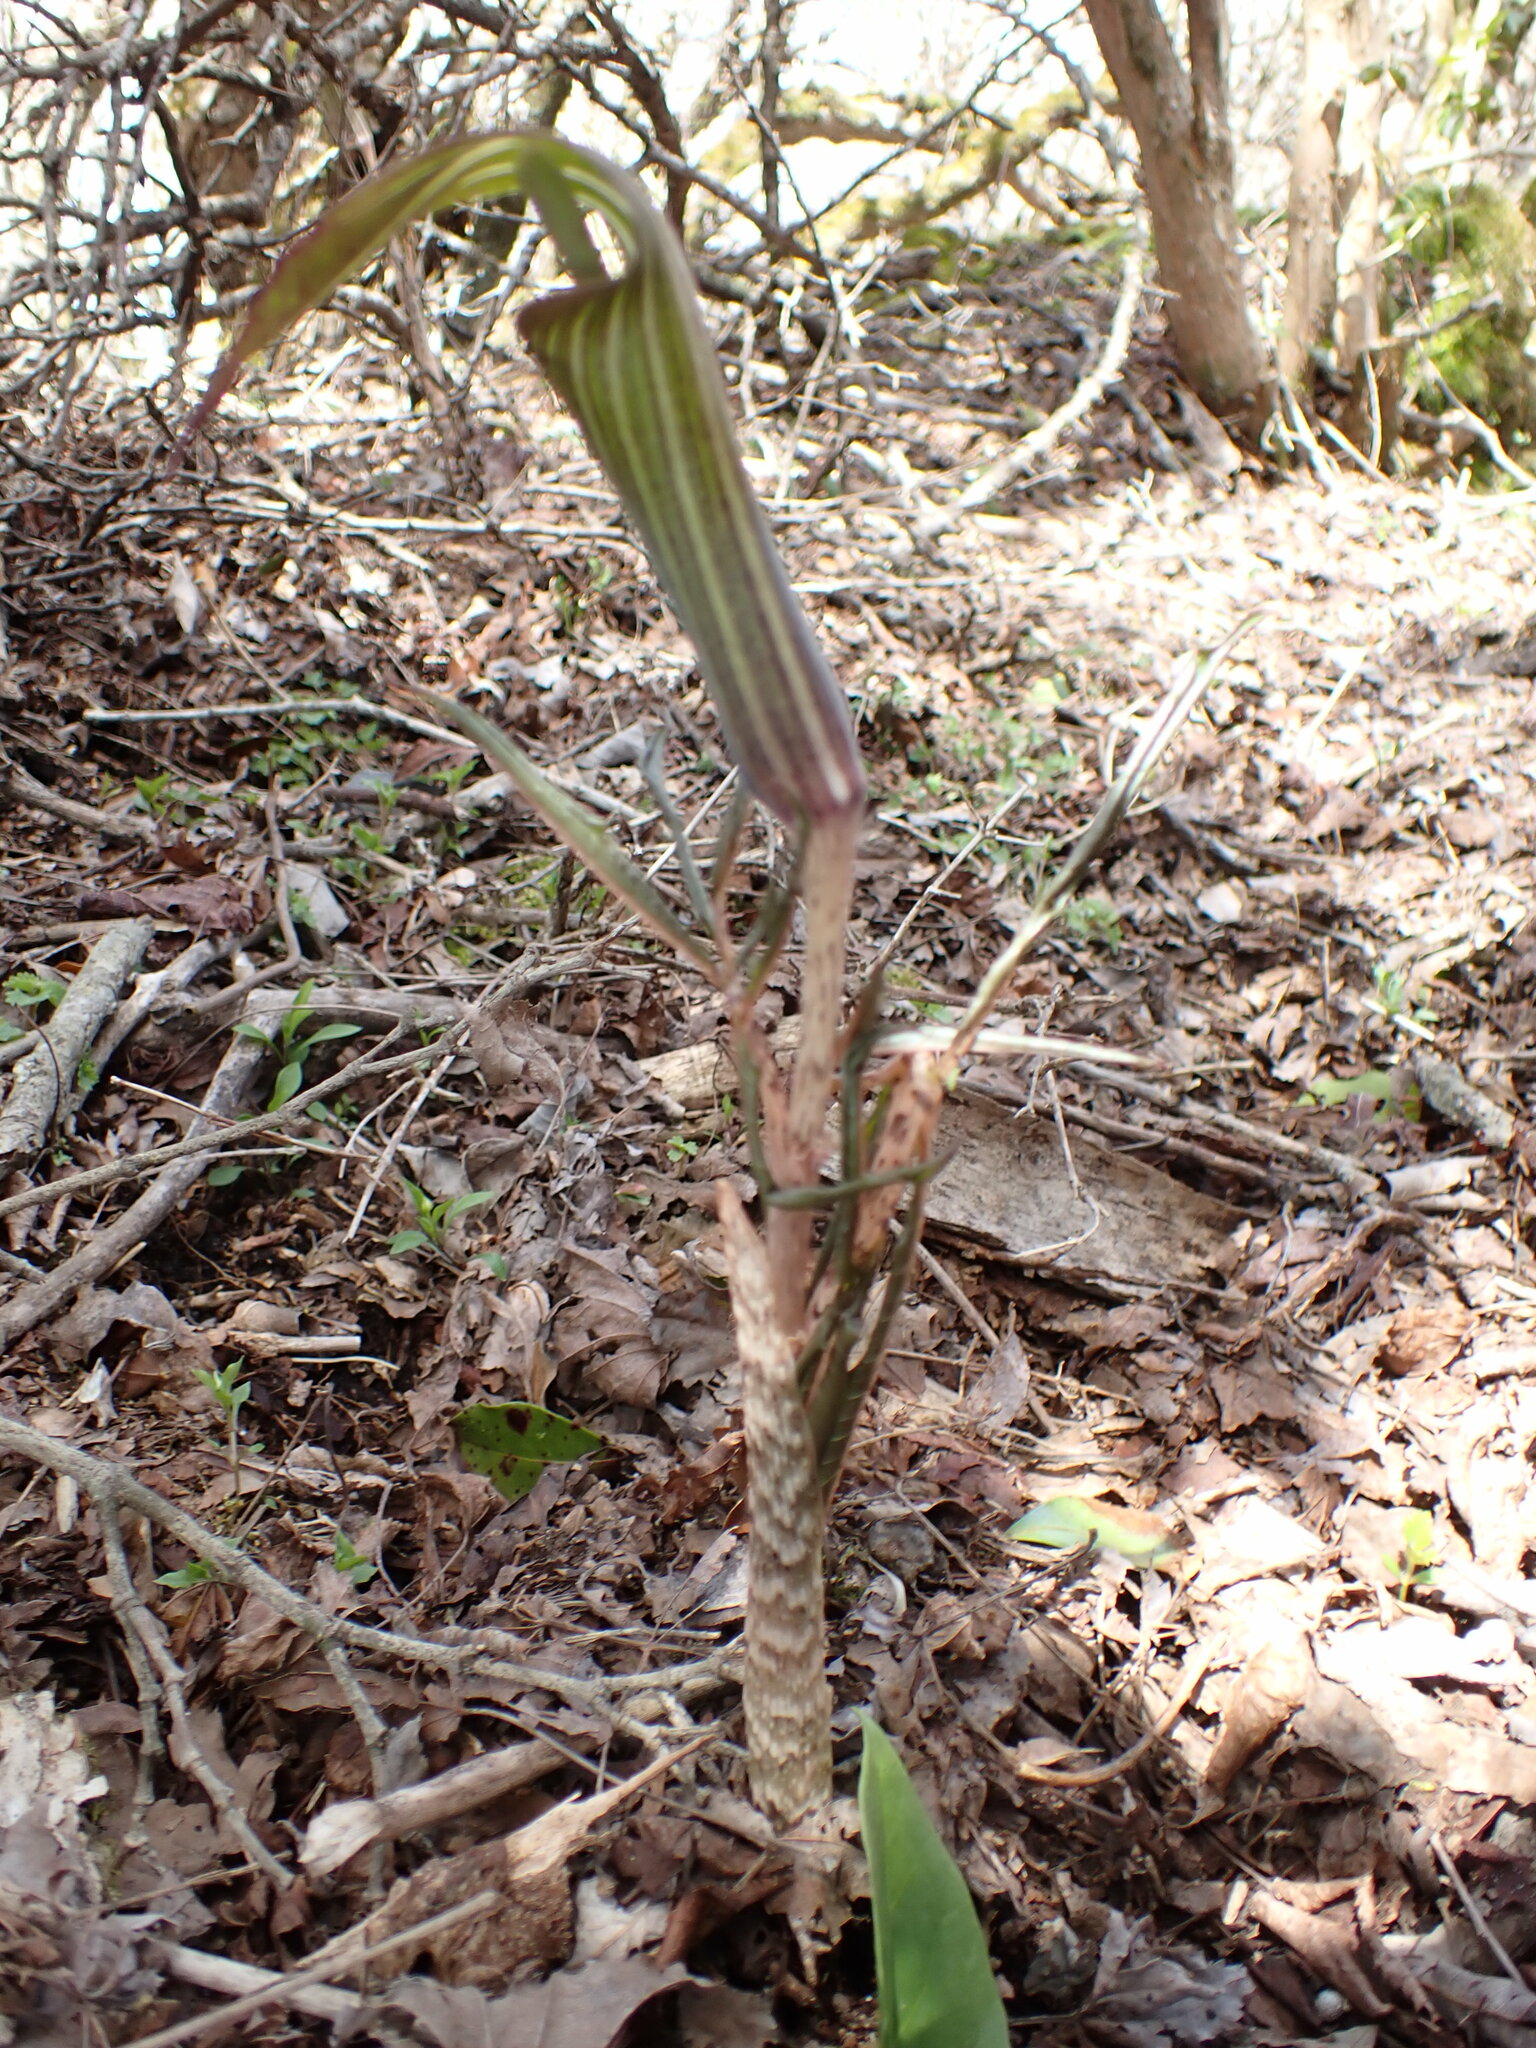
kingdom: Plantae
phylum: Tracheophyta
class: Liliopsida
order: Alismatales
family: Araceae
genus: Arisaema
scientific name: Arisaema japonicum
